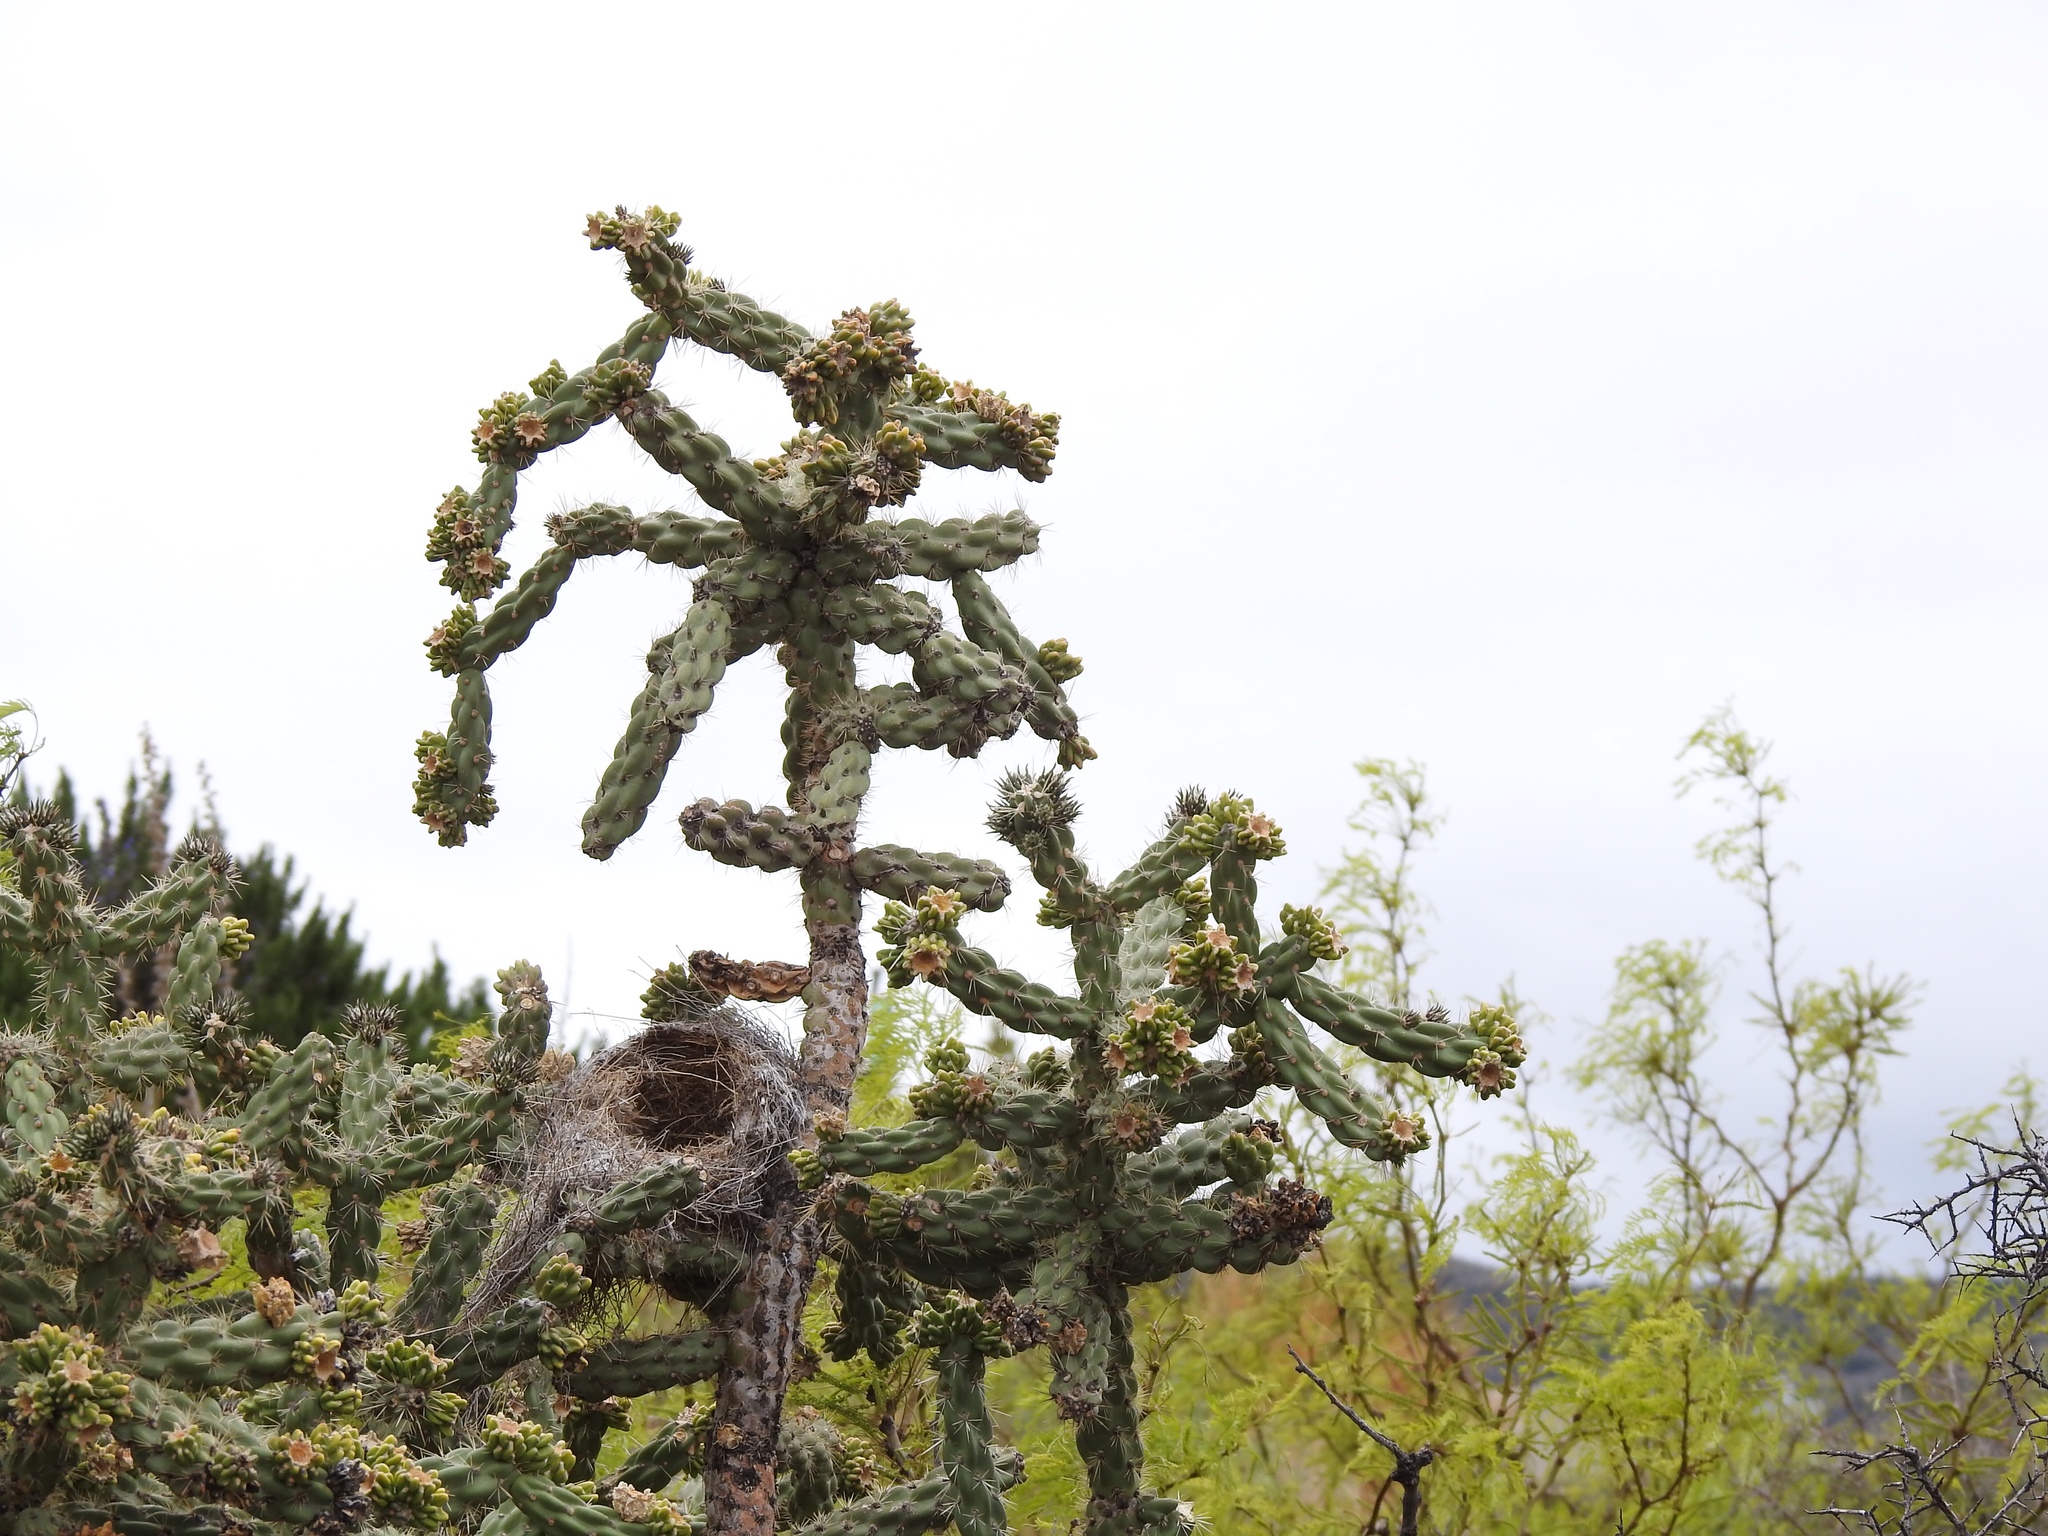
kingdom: Plantae
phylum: Tracheophyta
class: Magnoliopsida
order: Caryophyllales
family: Cactaceae
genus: Cylindropuntia
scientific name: Cylindropuntia imbricata
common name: Candelabrum cactus
